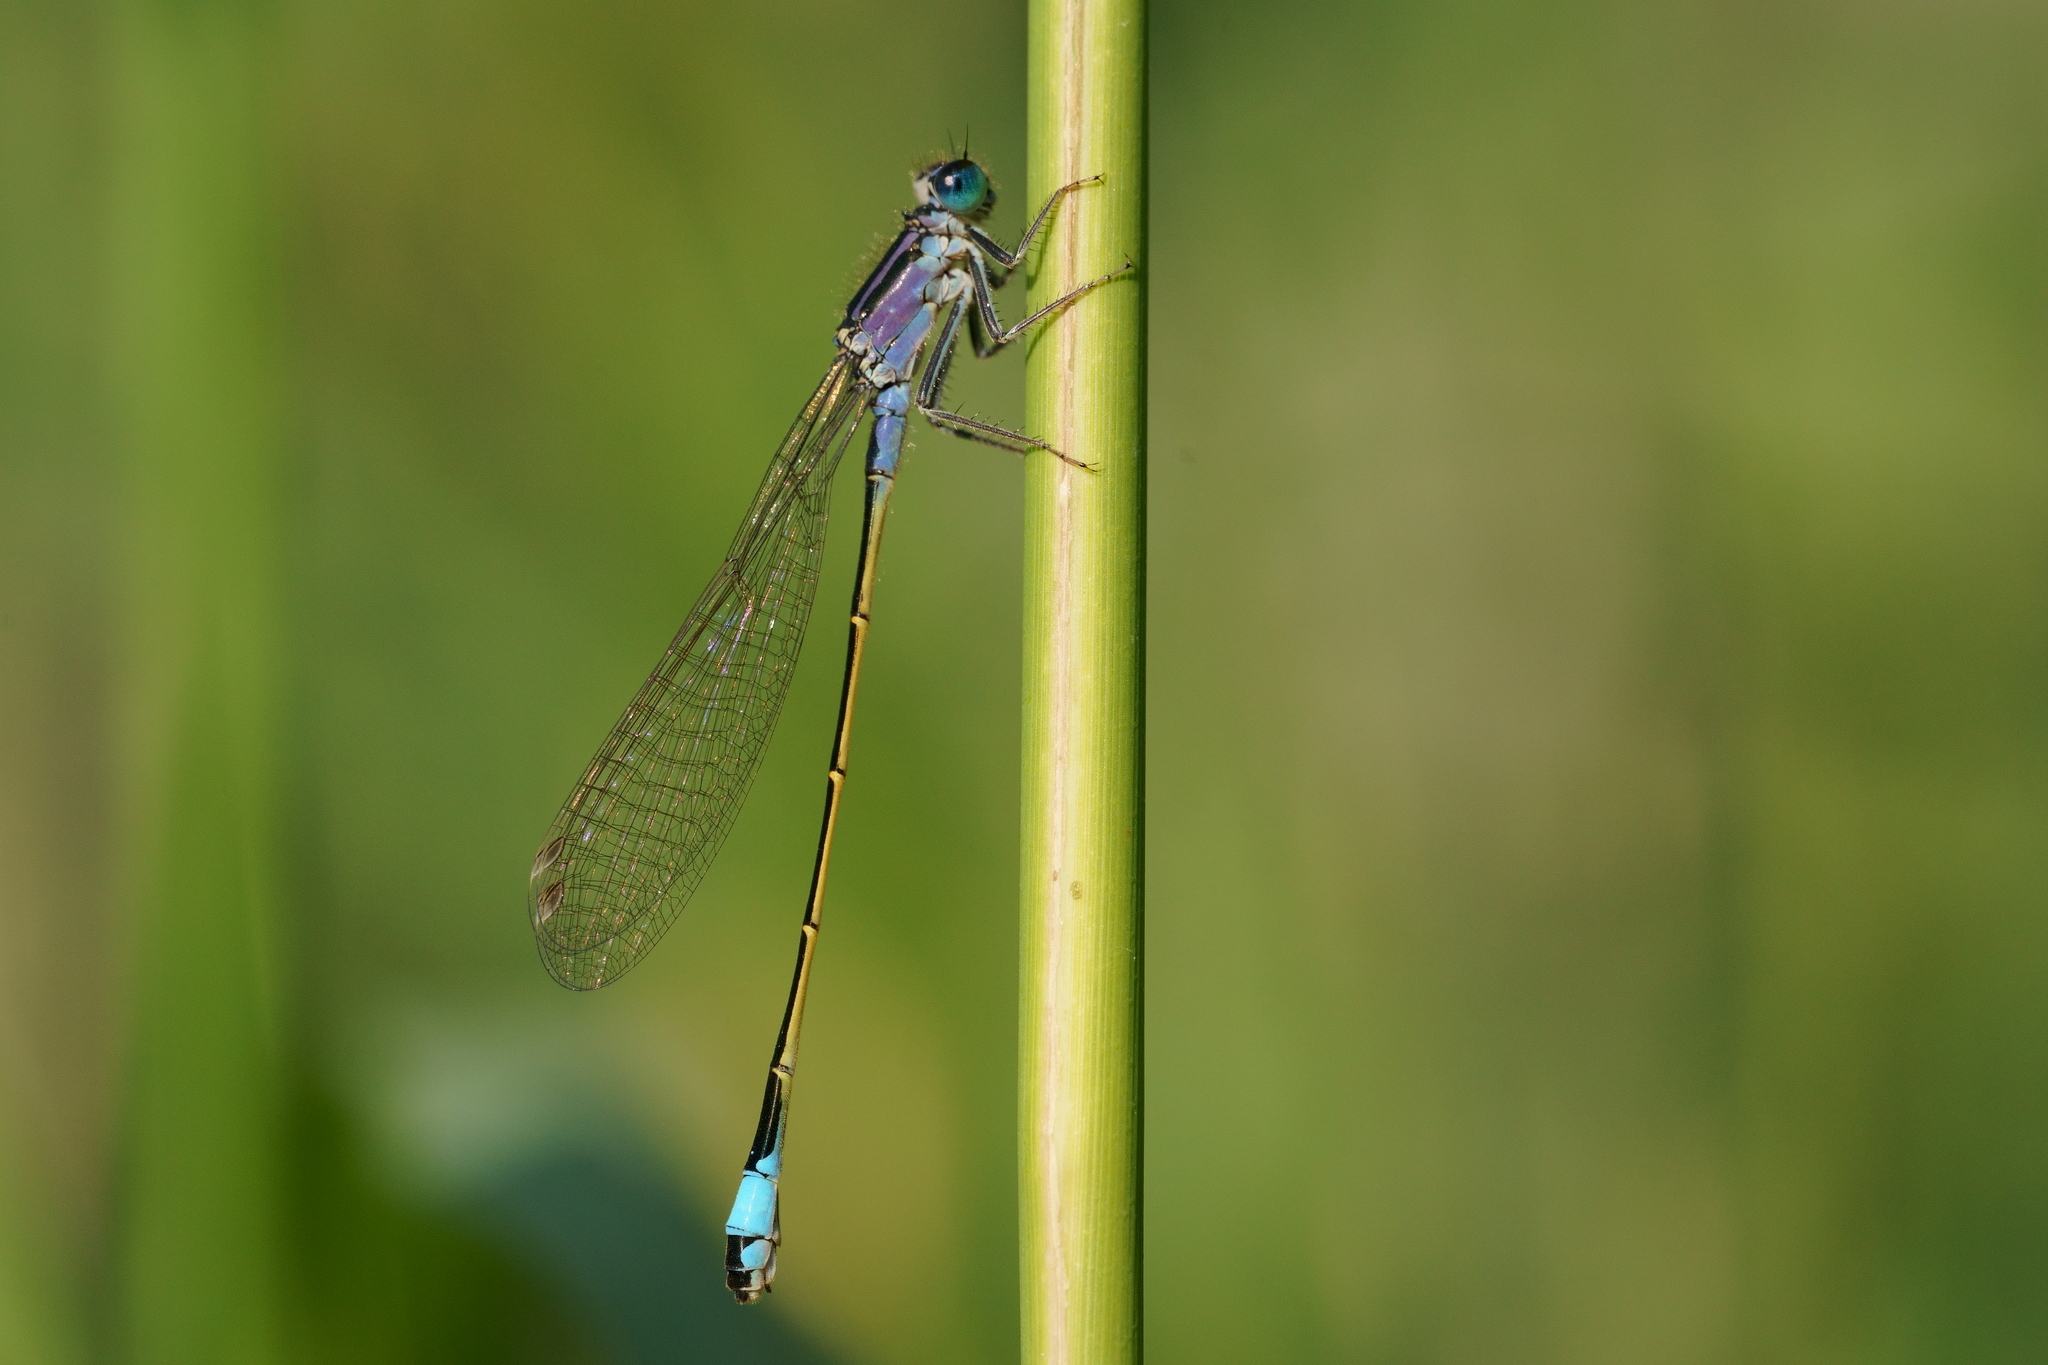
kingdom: Animalia
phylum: Arthropoda
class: Insecta
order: Odonata
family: Coenagrionidae
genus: Ischnura
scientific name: Ischnura elegans
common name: Blue-tailed damselfly
